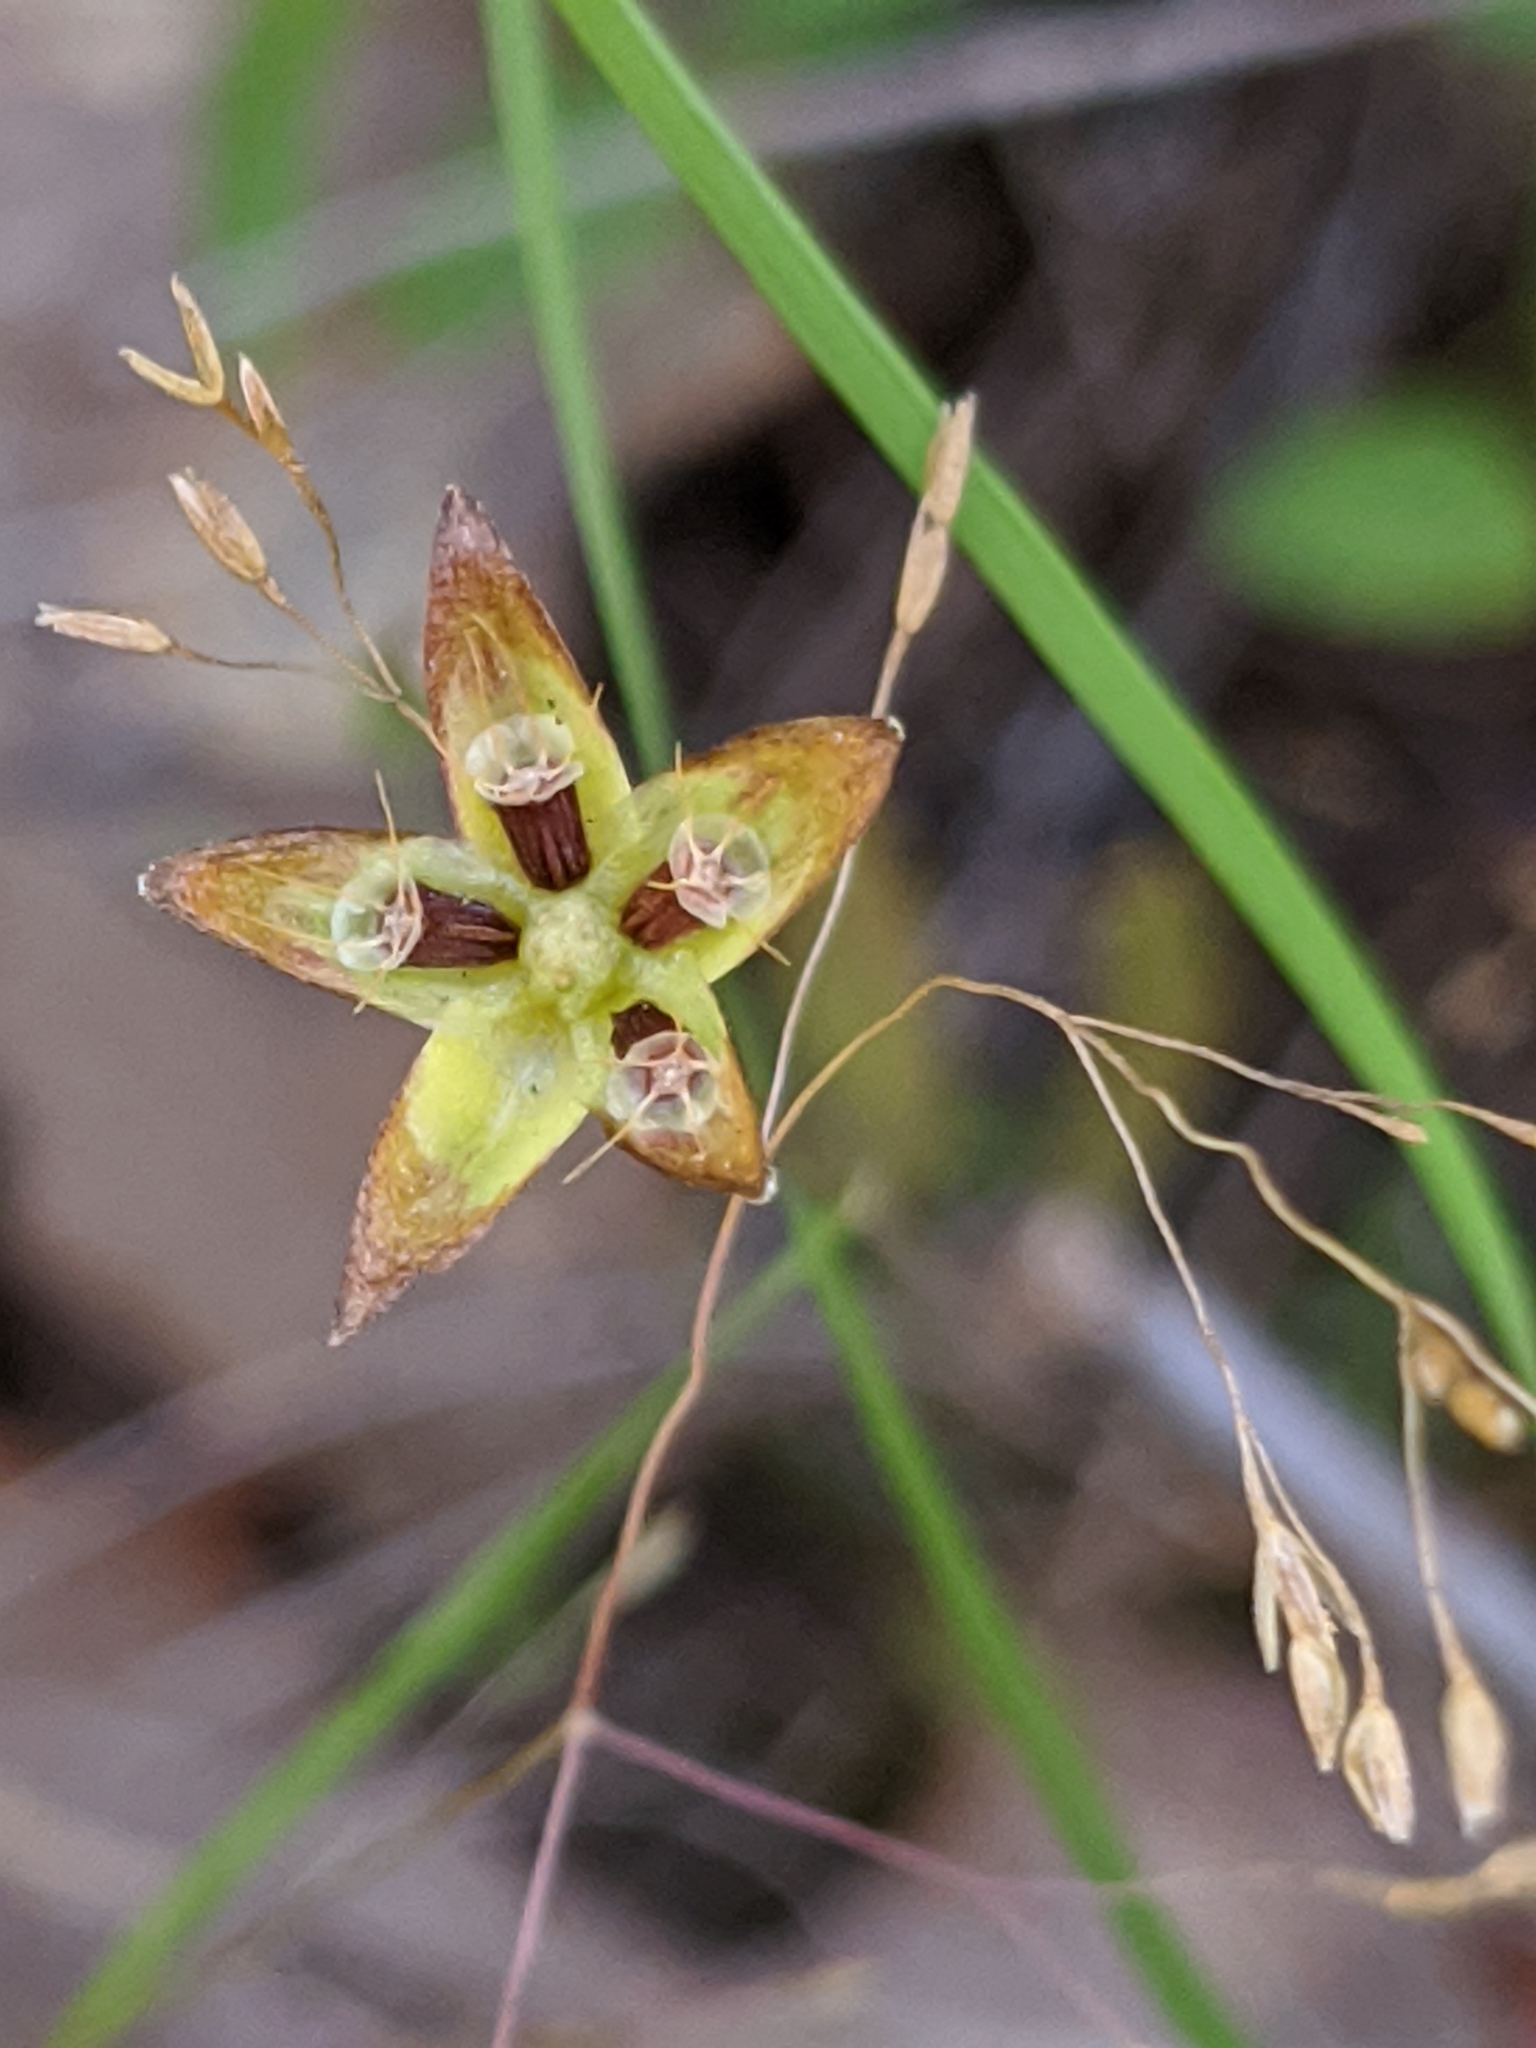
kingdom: Plantae
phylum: Tracheophyta
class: Magnoliopsida
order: Asterales
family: Asteraceae
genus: Krigia
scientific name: Krigia occidentalis
